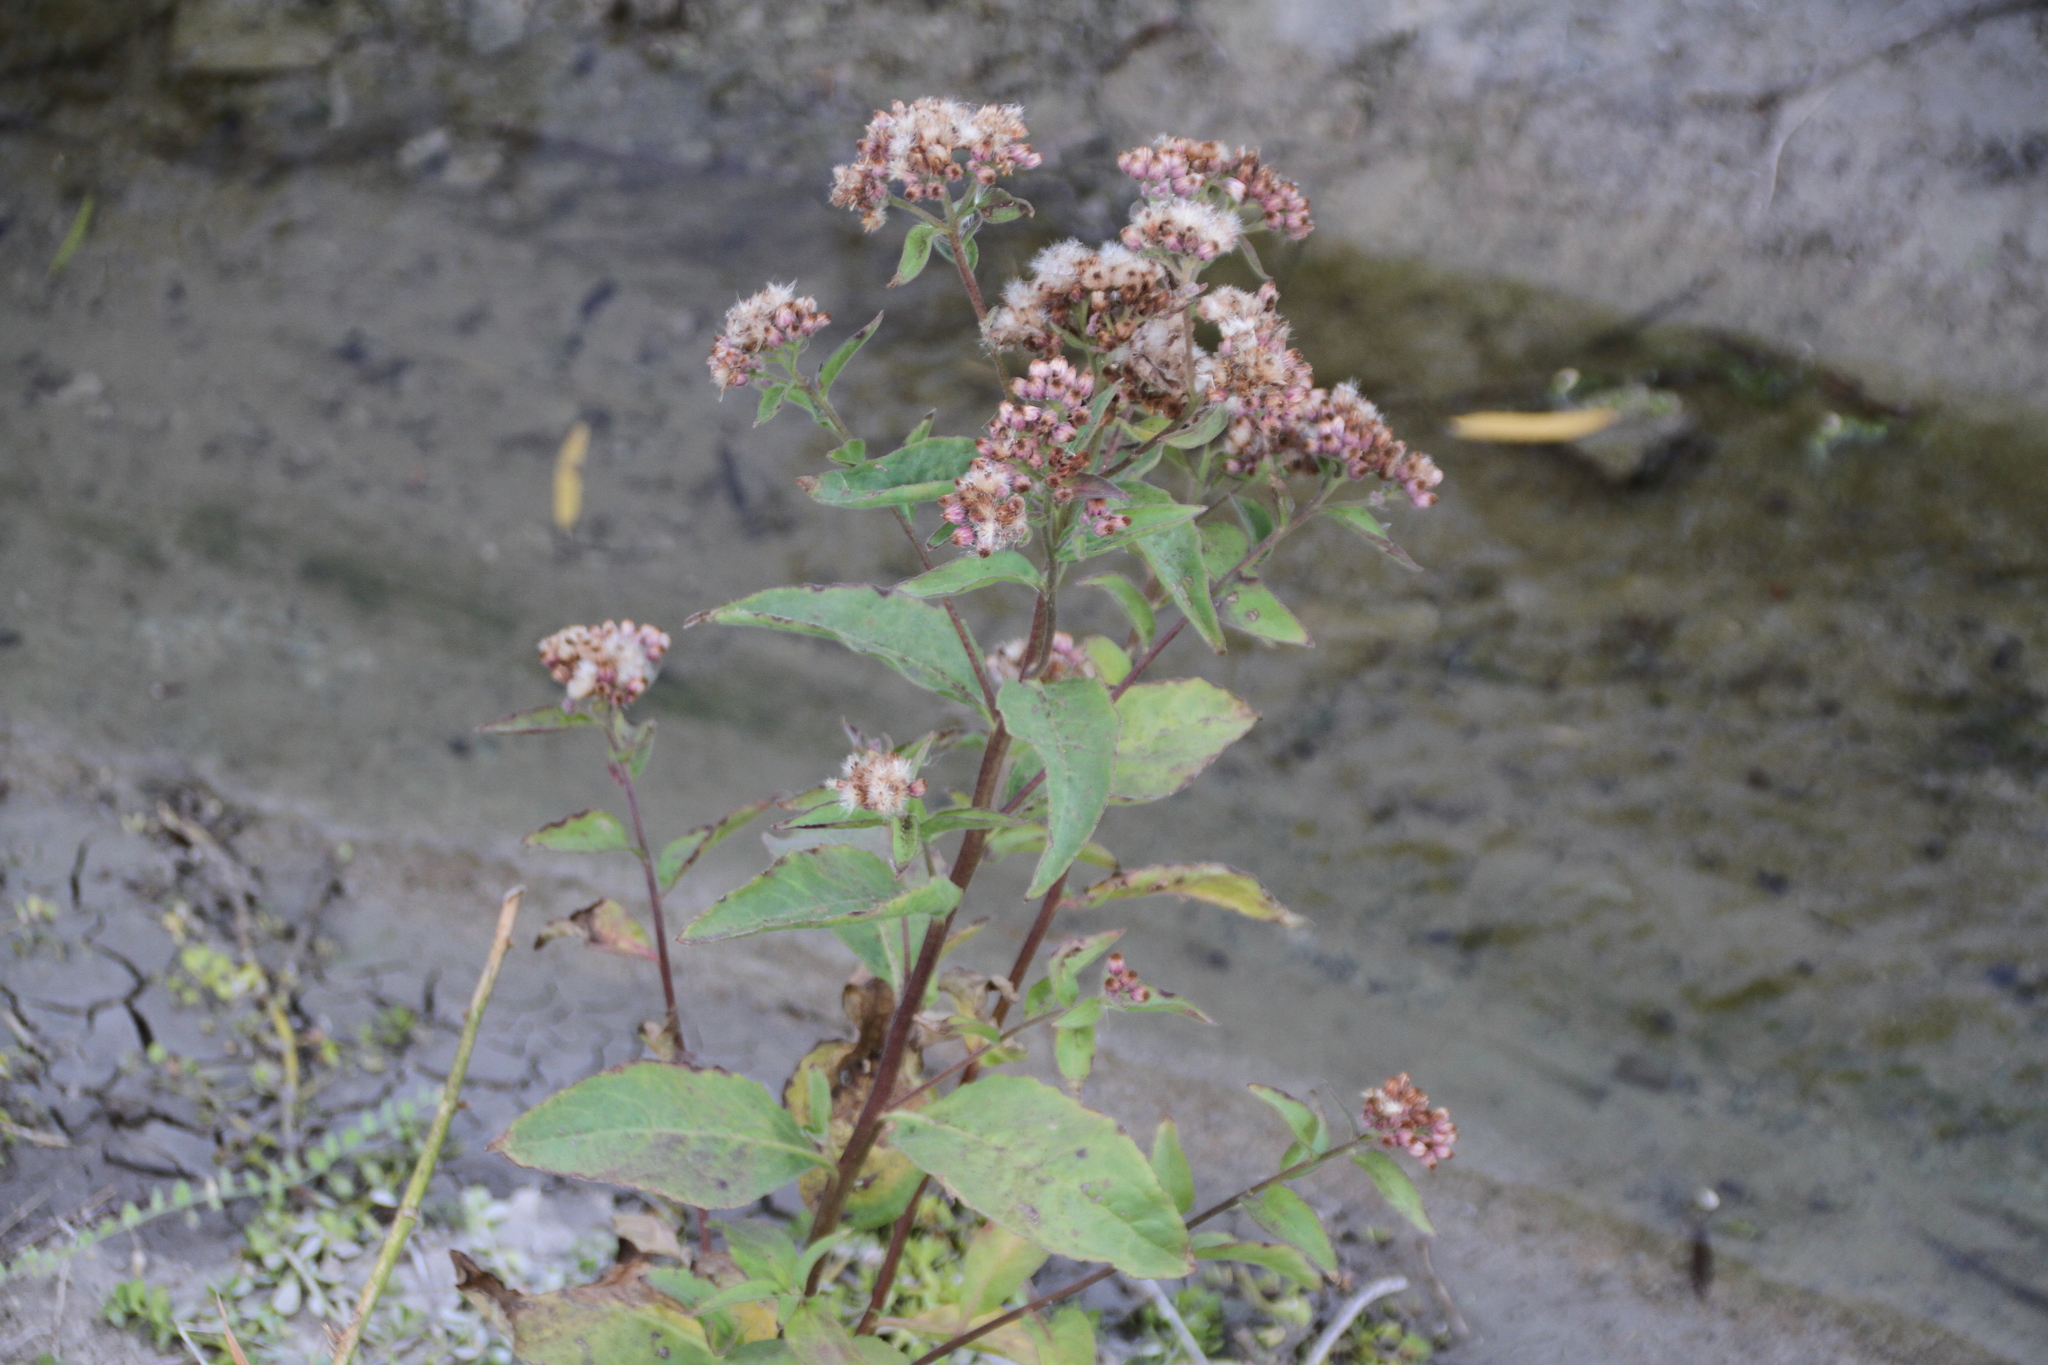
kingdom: Plantae
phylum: Tracheophyta
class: Magnoliopsida
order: Asterales
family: Asteraceae
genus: Pluchea
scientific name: Pluchea odorata
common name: Saltmarsh fleabane
